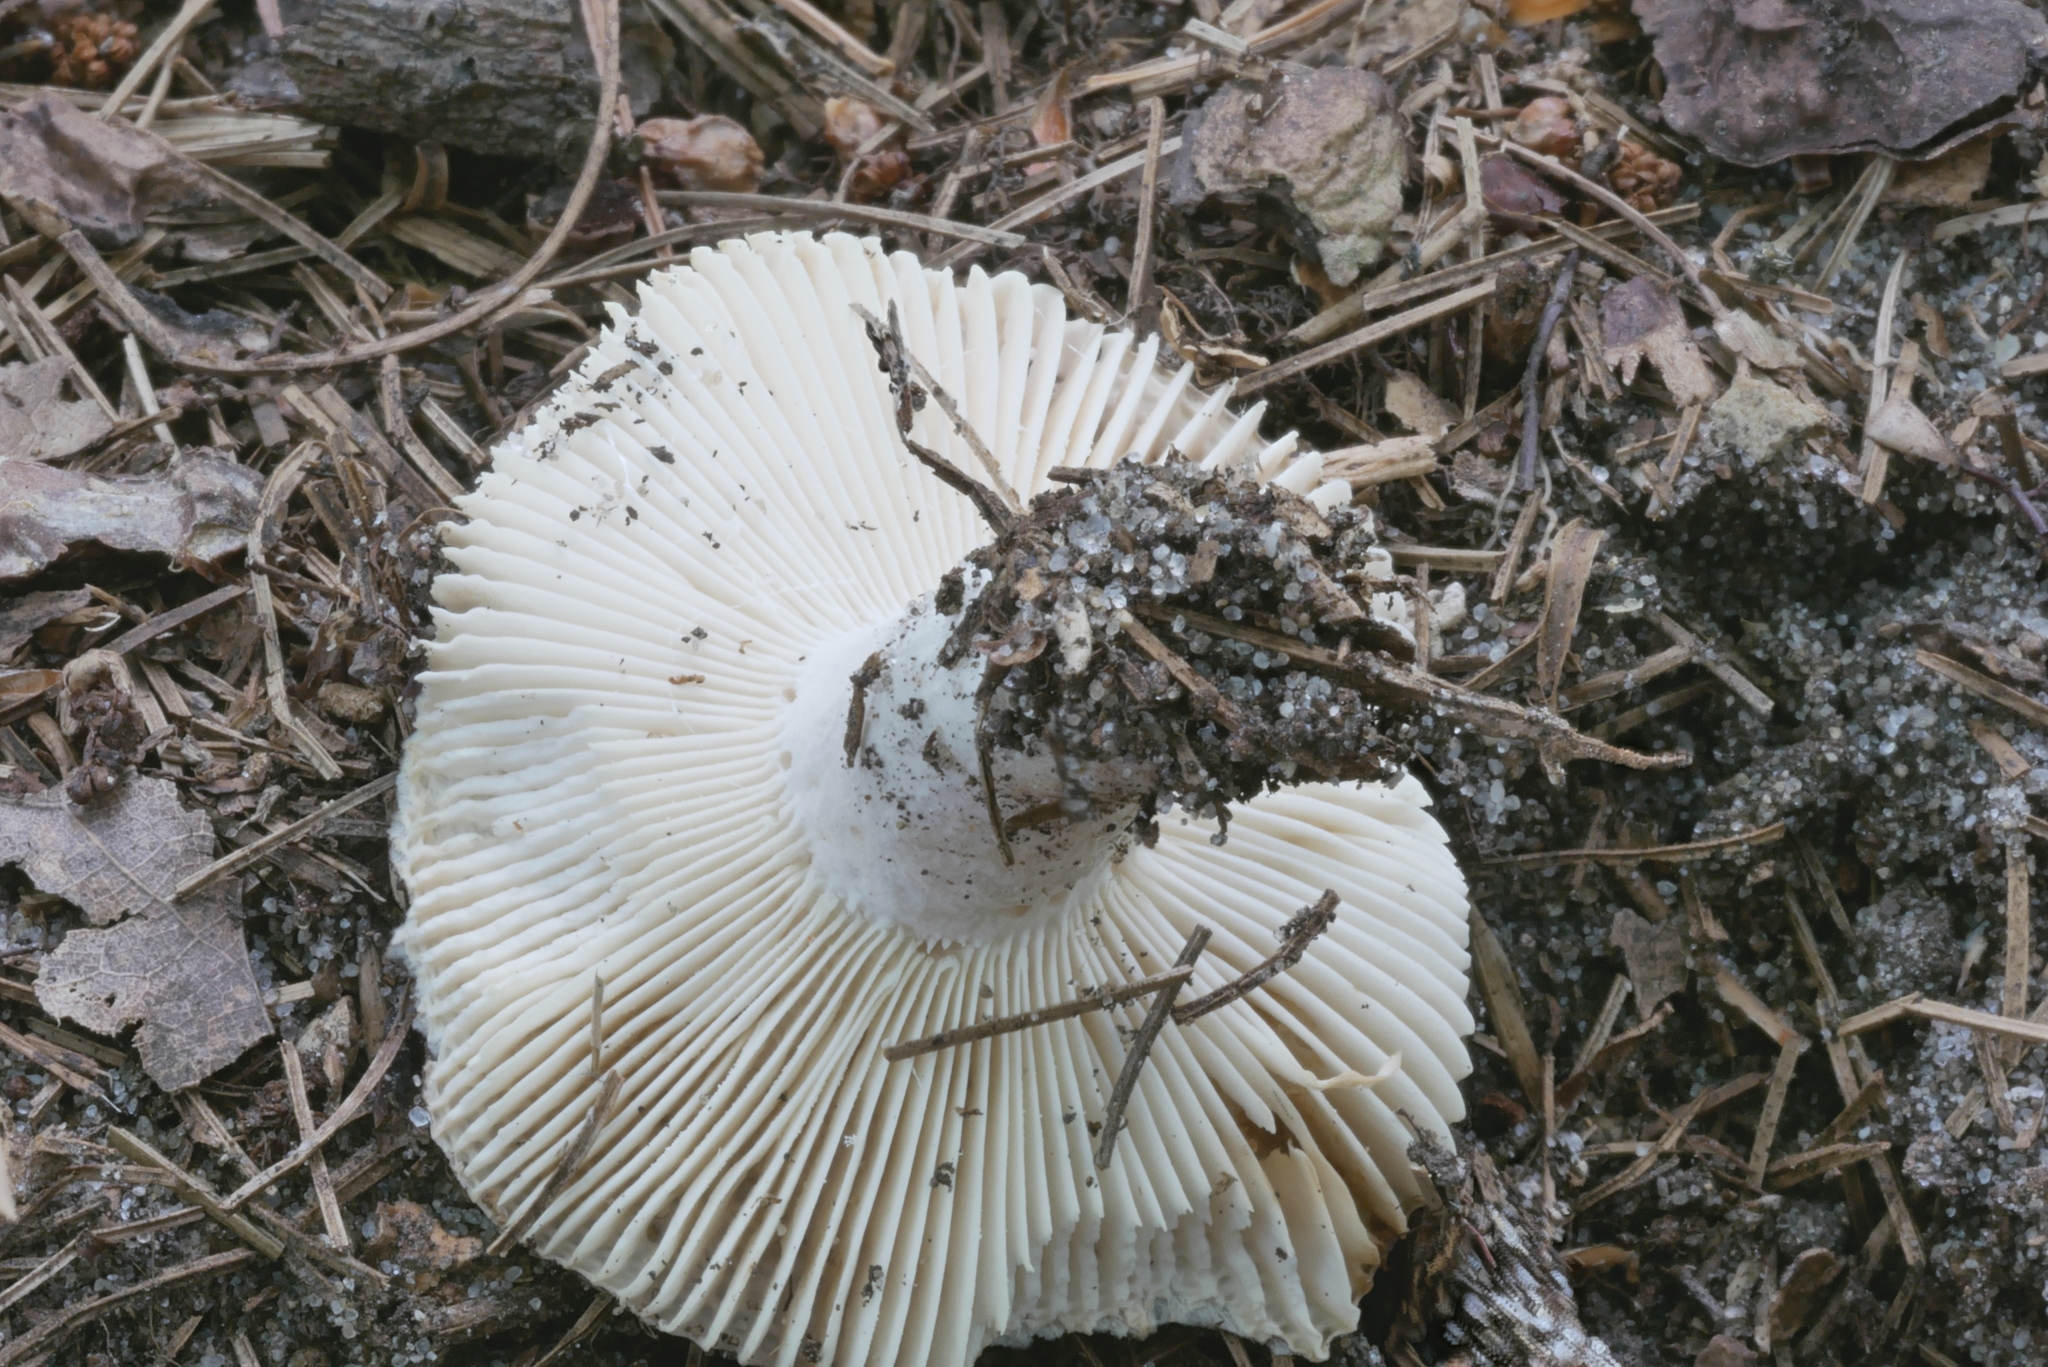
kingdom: Fungi
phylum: Basidiomycota
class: Agaricomycetes
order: Russulales
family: Russulaceae
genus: Russula
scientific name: Russula modesta
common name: Modest russula
